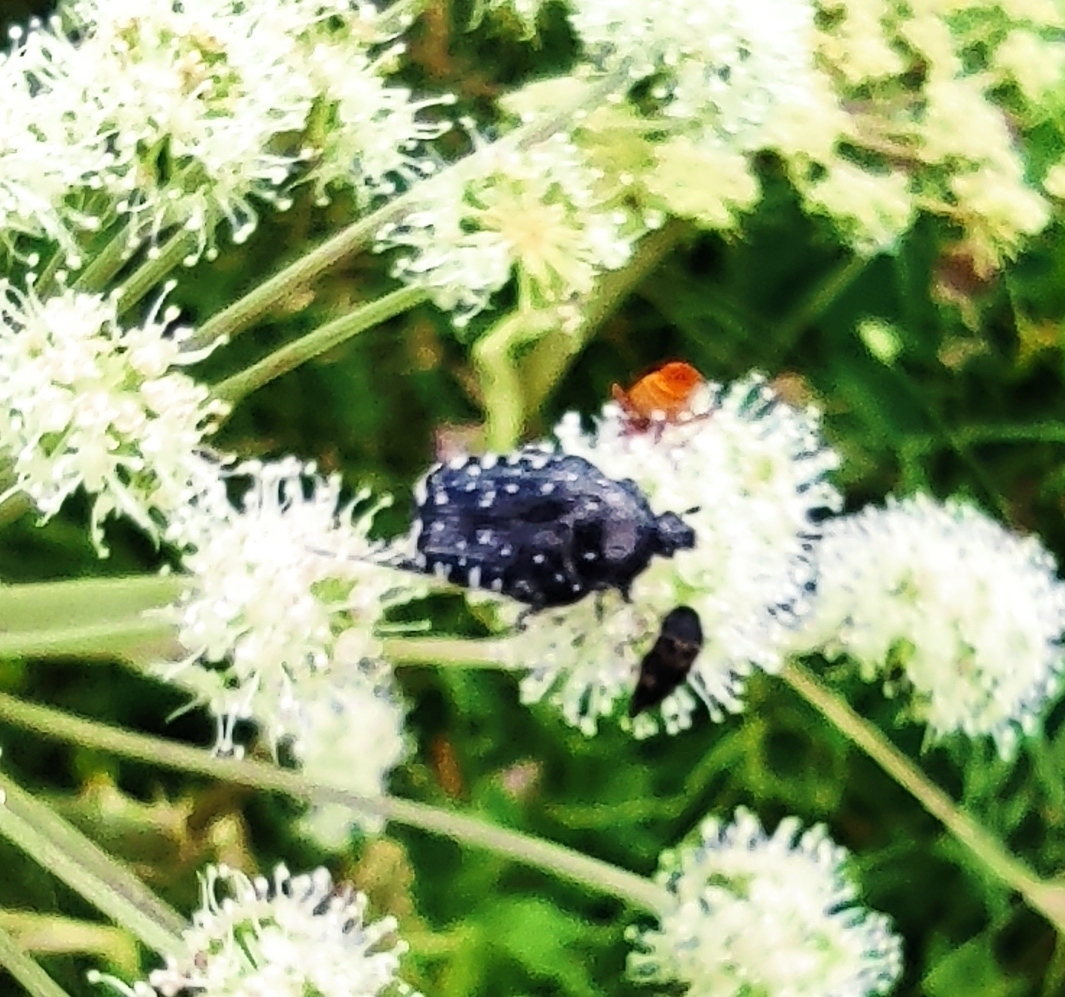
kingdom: Animalia
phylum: Arthropoda
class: Insecta
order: Coleoptera
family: Scarabaeidae
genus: Oxythyrea
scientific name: Oxythyrea funesta
